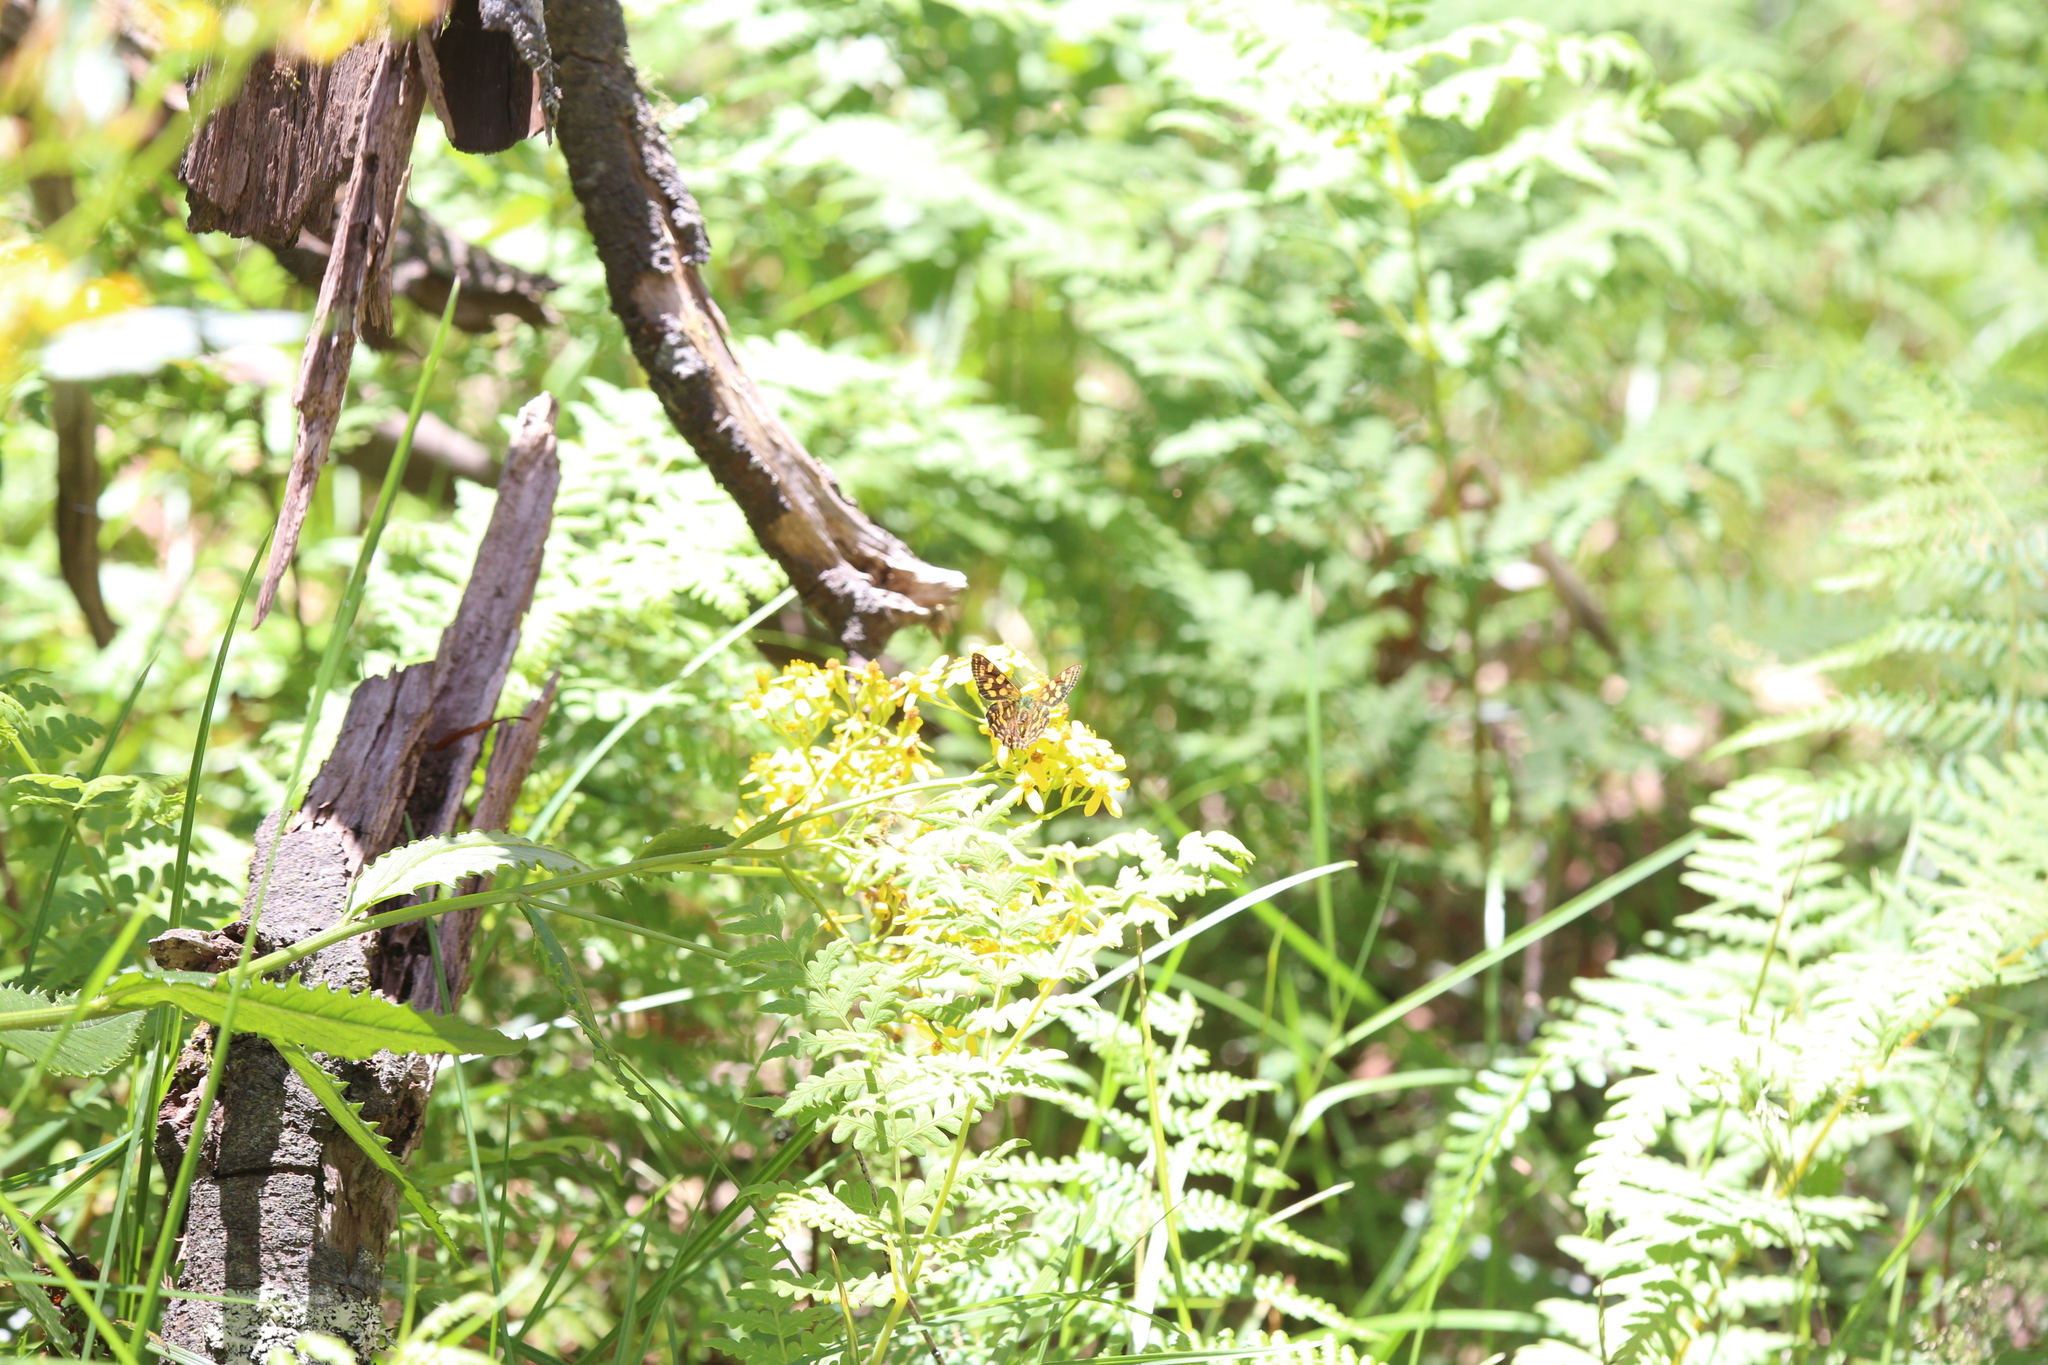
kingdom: Animalia
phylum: Arthropoda
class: Insecta
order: Lepidoptera
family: Nymphalidae
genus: Oreixenica
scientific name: Oreixenica kershawi
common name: Striped xenica
